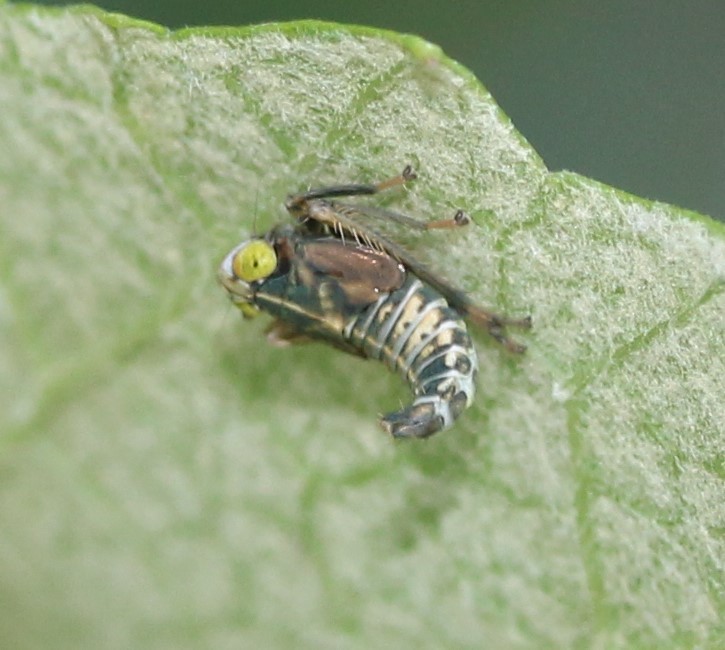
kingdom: Animalia
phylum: Arthropoda
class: Insecta
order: Hemiptera
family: Cicadellidae
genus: Jikradia
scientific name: Jikradia olitoria
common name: Coppery leafhopper
